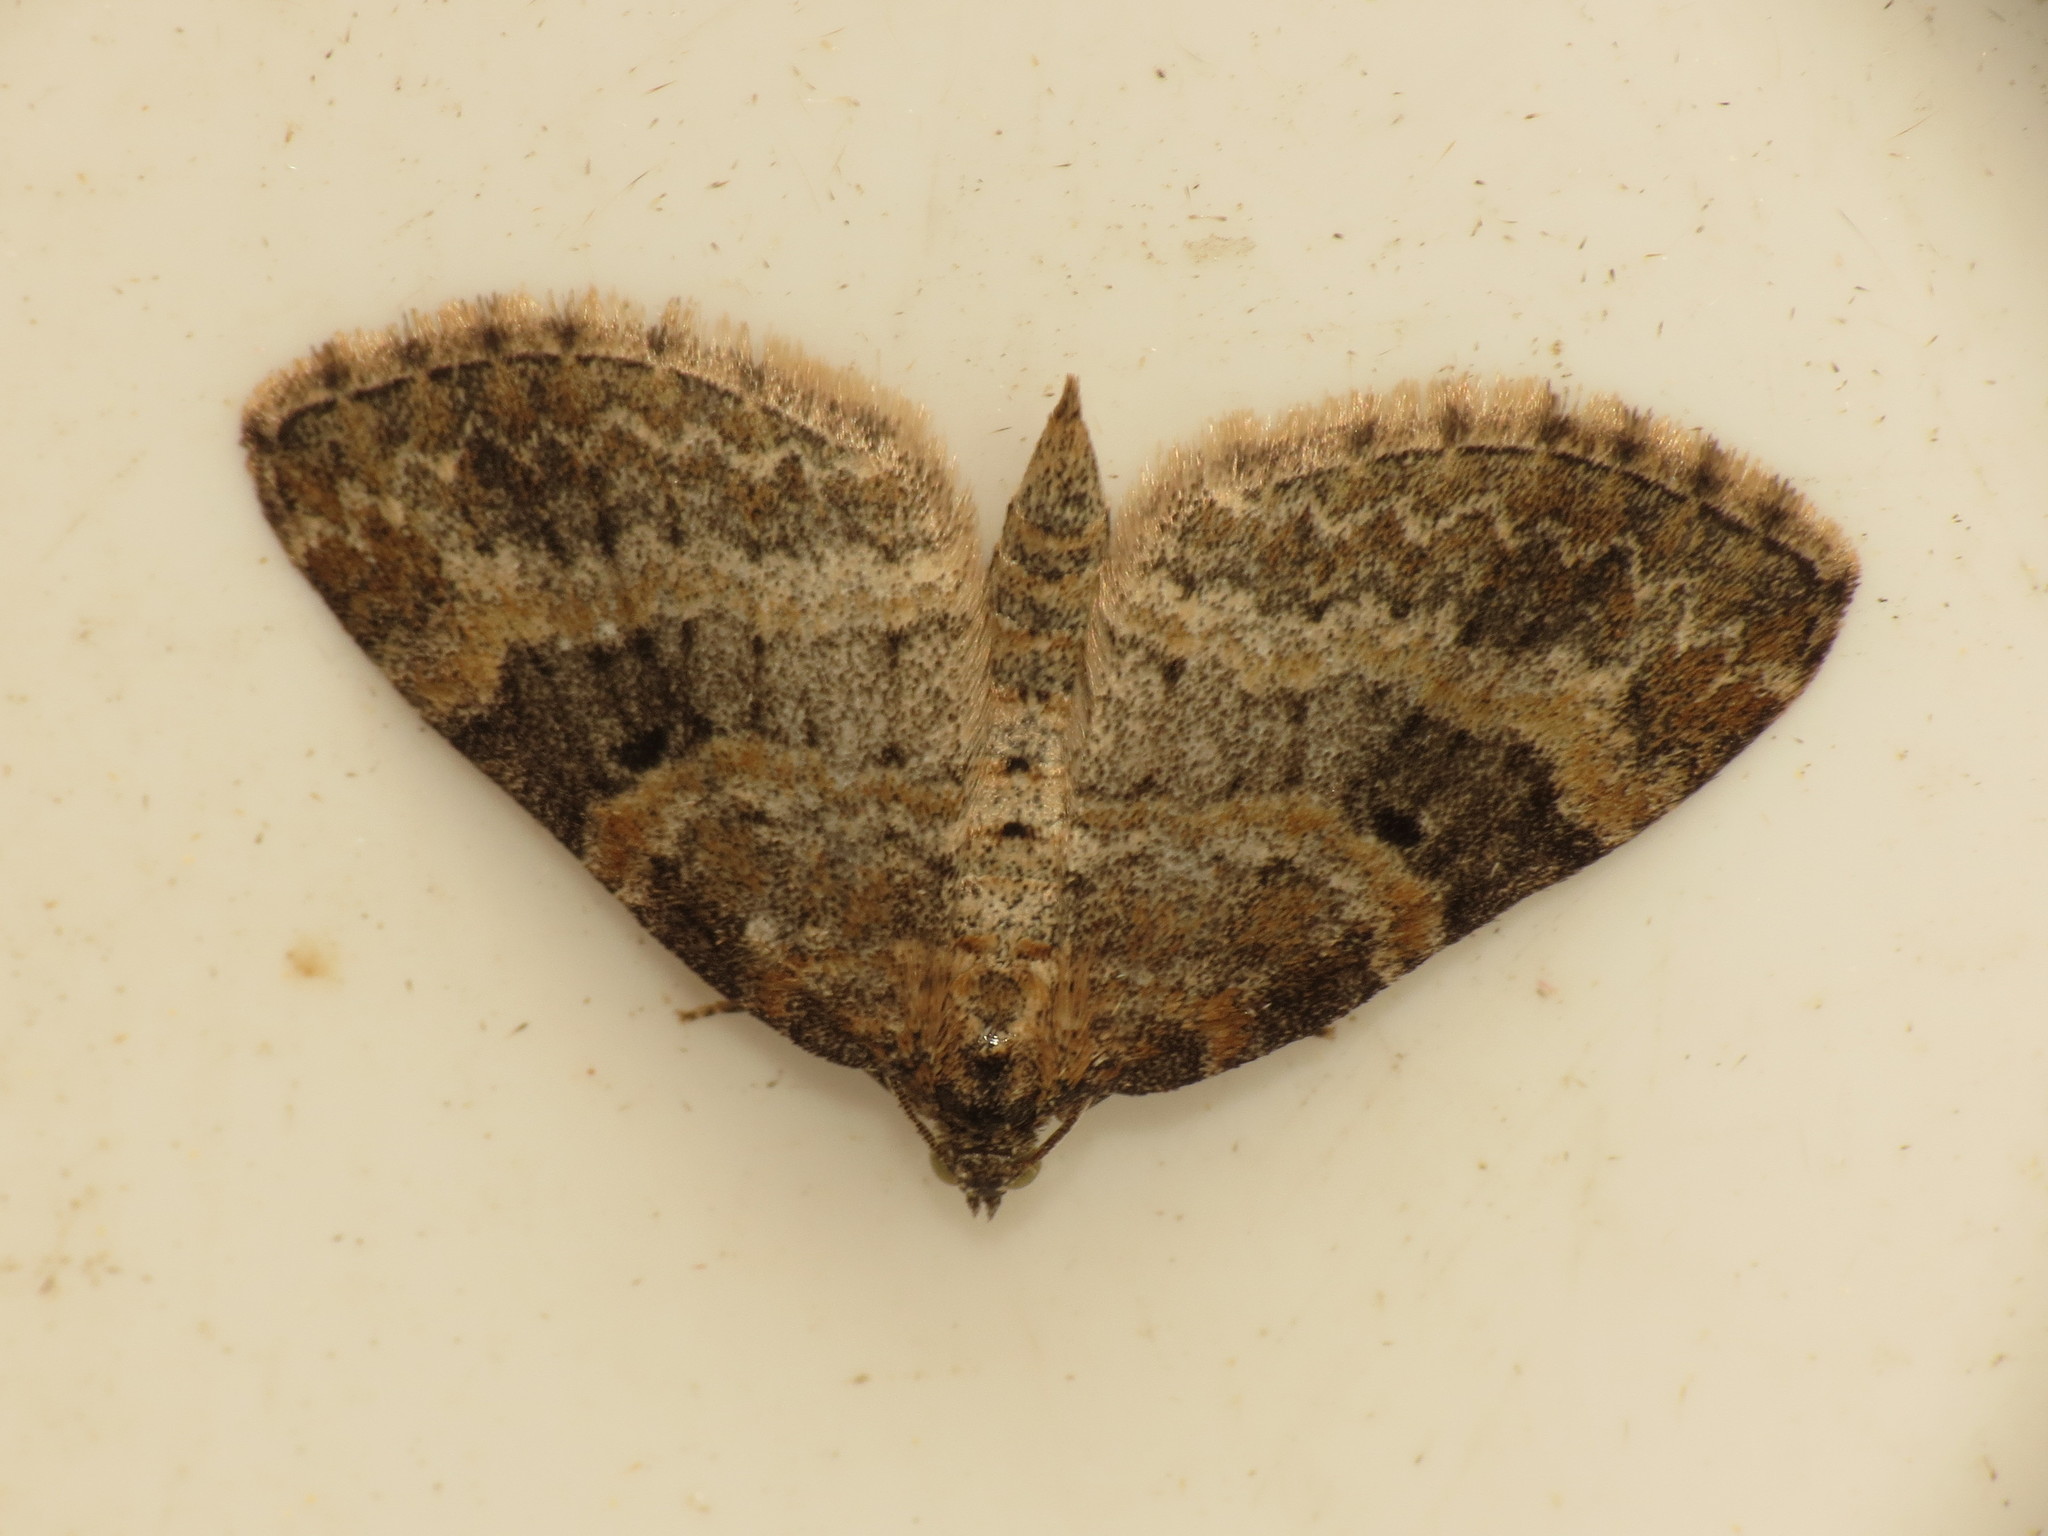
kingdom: Animalia
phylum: Arthropoda
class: Insecta
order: Lepidoptera
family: Geometridae
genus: Pterapherapteryx
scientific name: Pterapherapteryx sexalata
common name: Small seraphim
